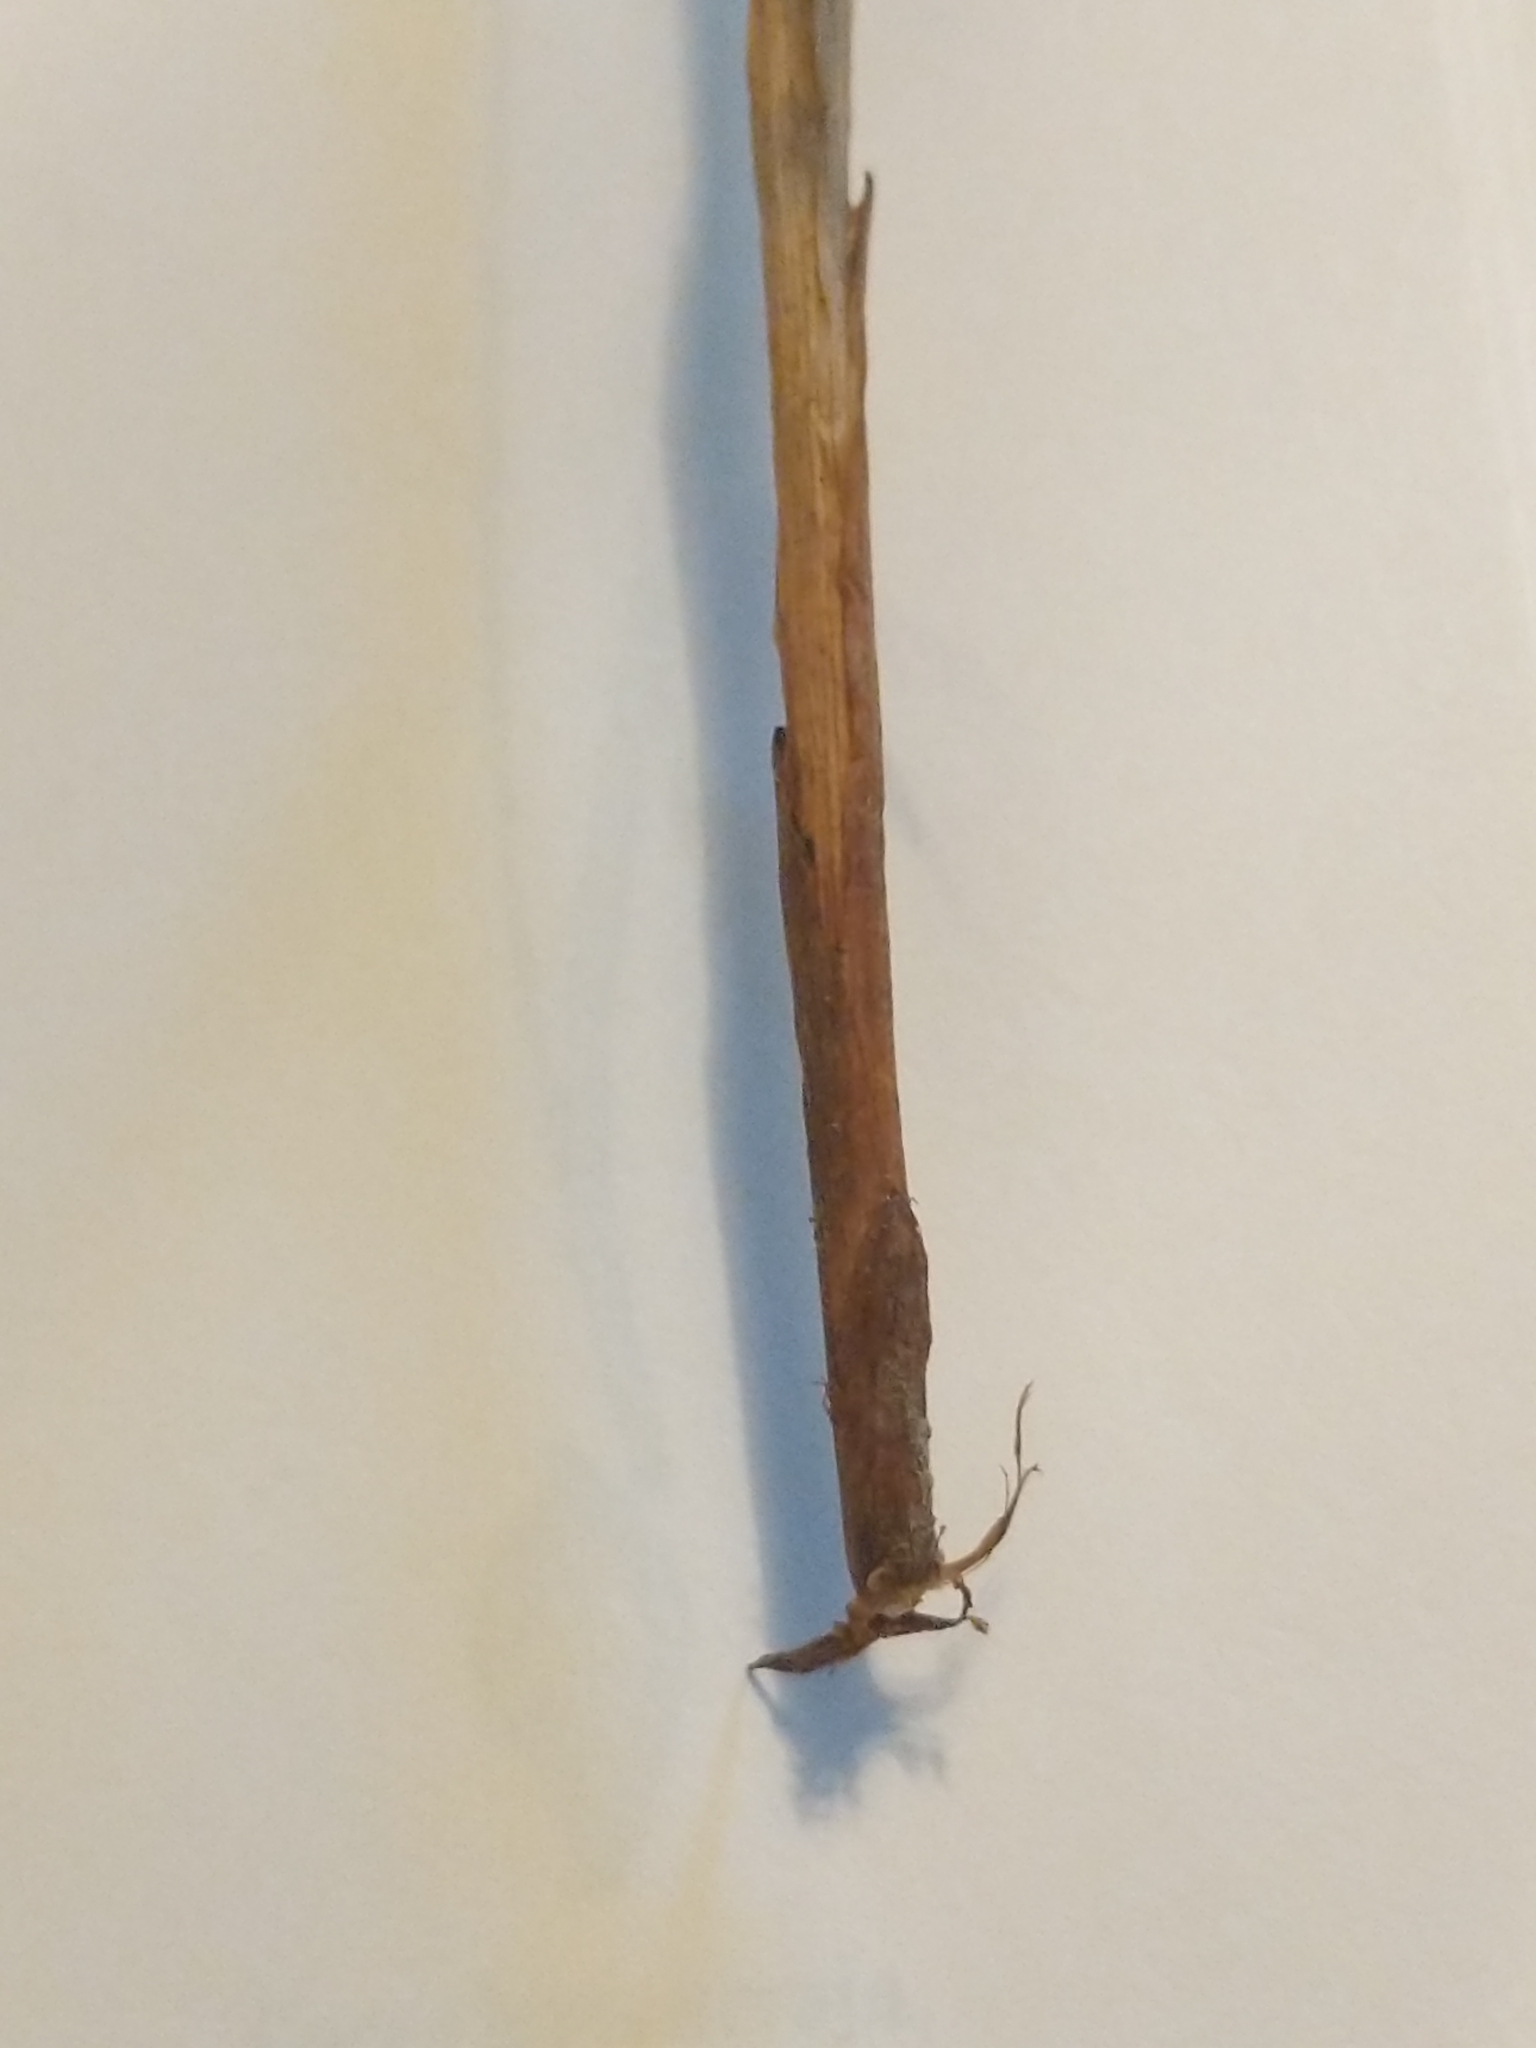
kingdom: Plantae
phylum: Tracheophyta
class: Liliopsida
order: Poales
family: Cyperaceae
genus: Carex
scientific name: Carex granularis
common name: Granular sedge
